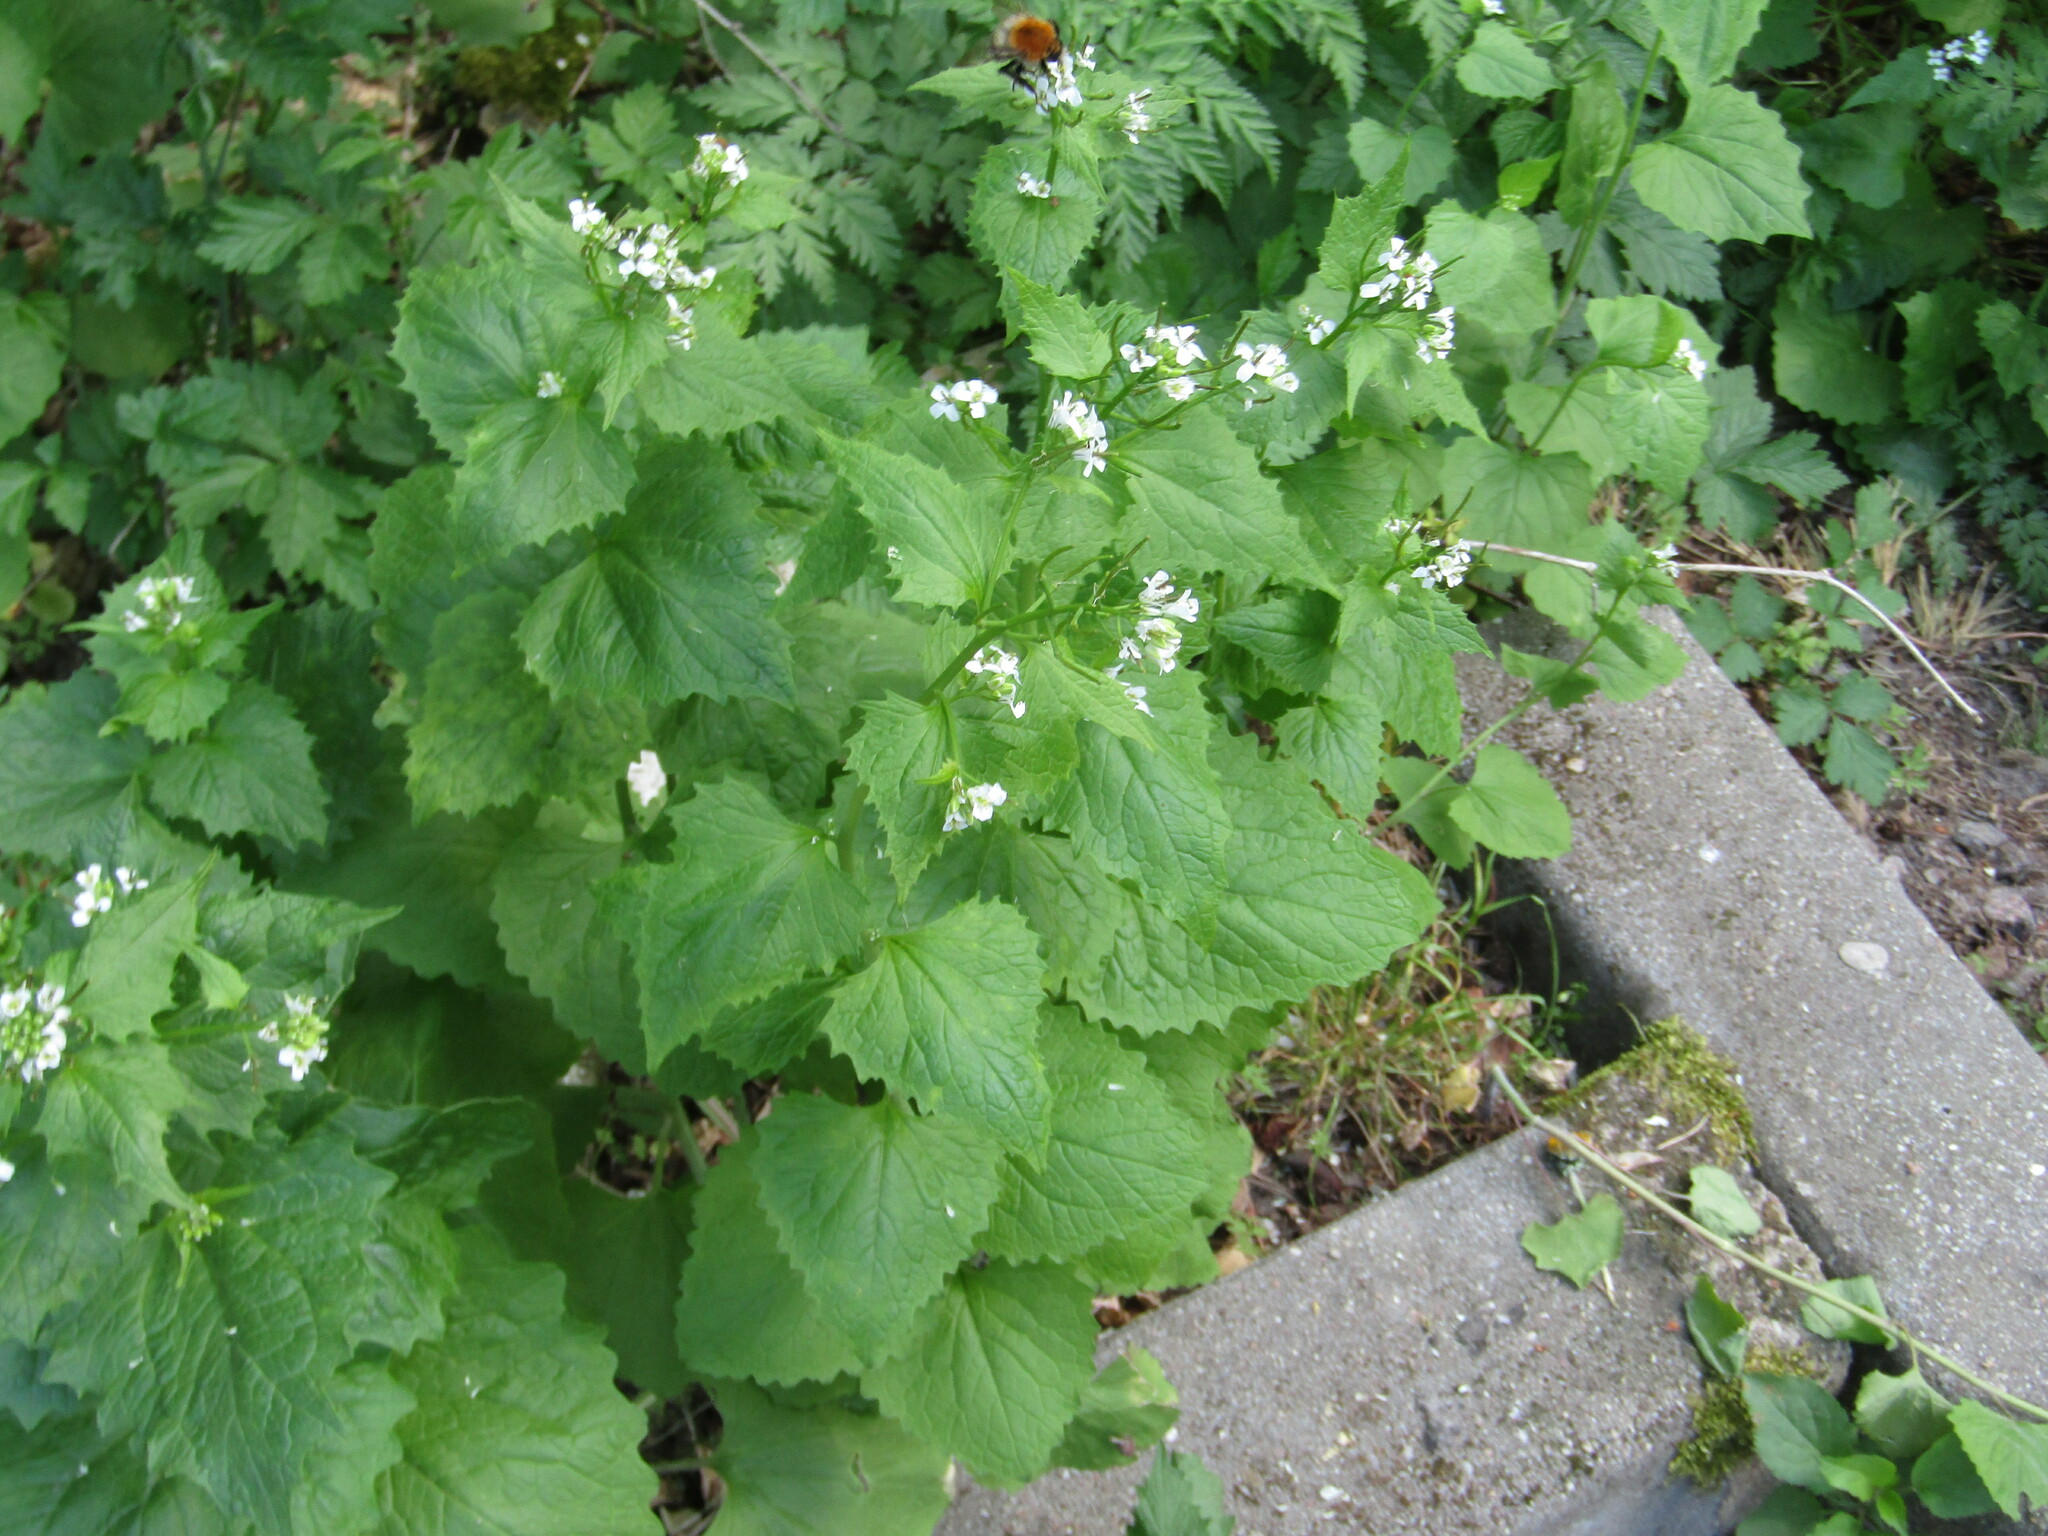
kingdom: Plantae
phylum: Tracheophyta
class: Magnoliopsida
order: Brassicales
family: Brassicaceae
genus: Alliaria
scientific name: Alliaria petiolata
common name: Garlic mustard
